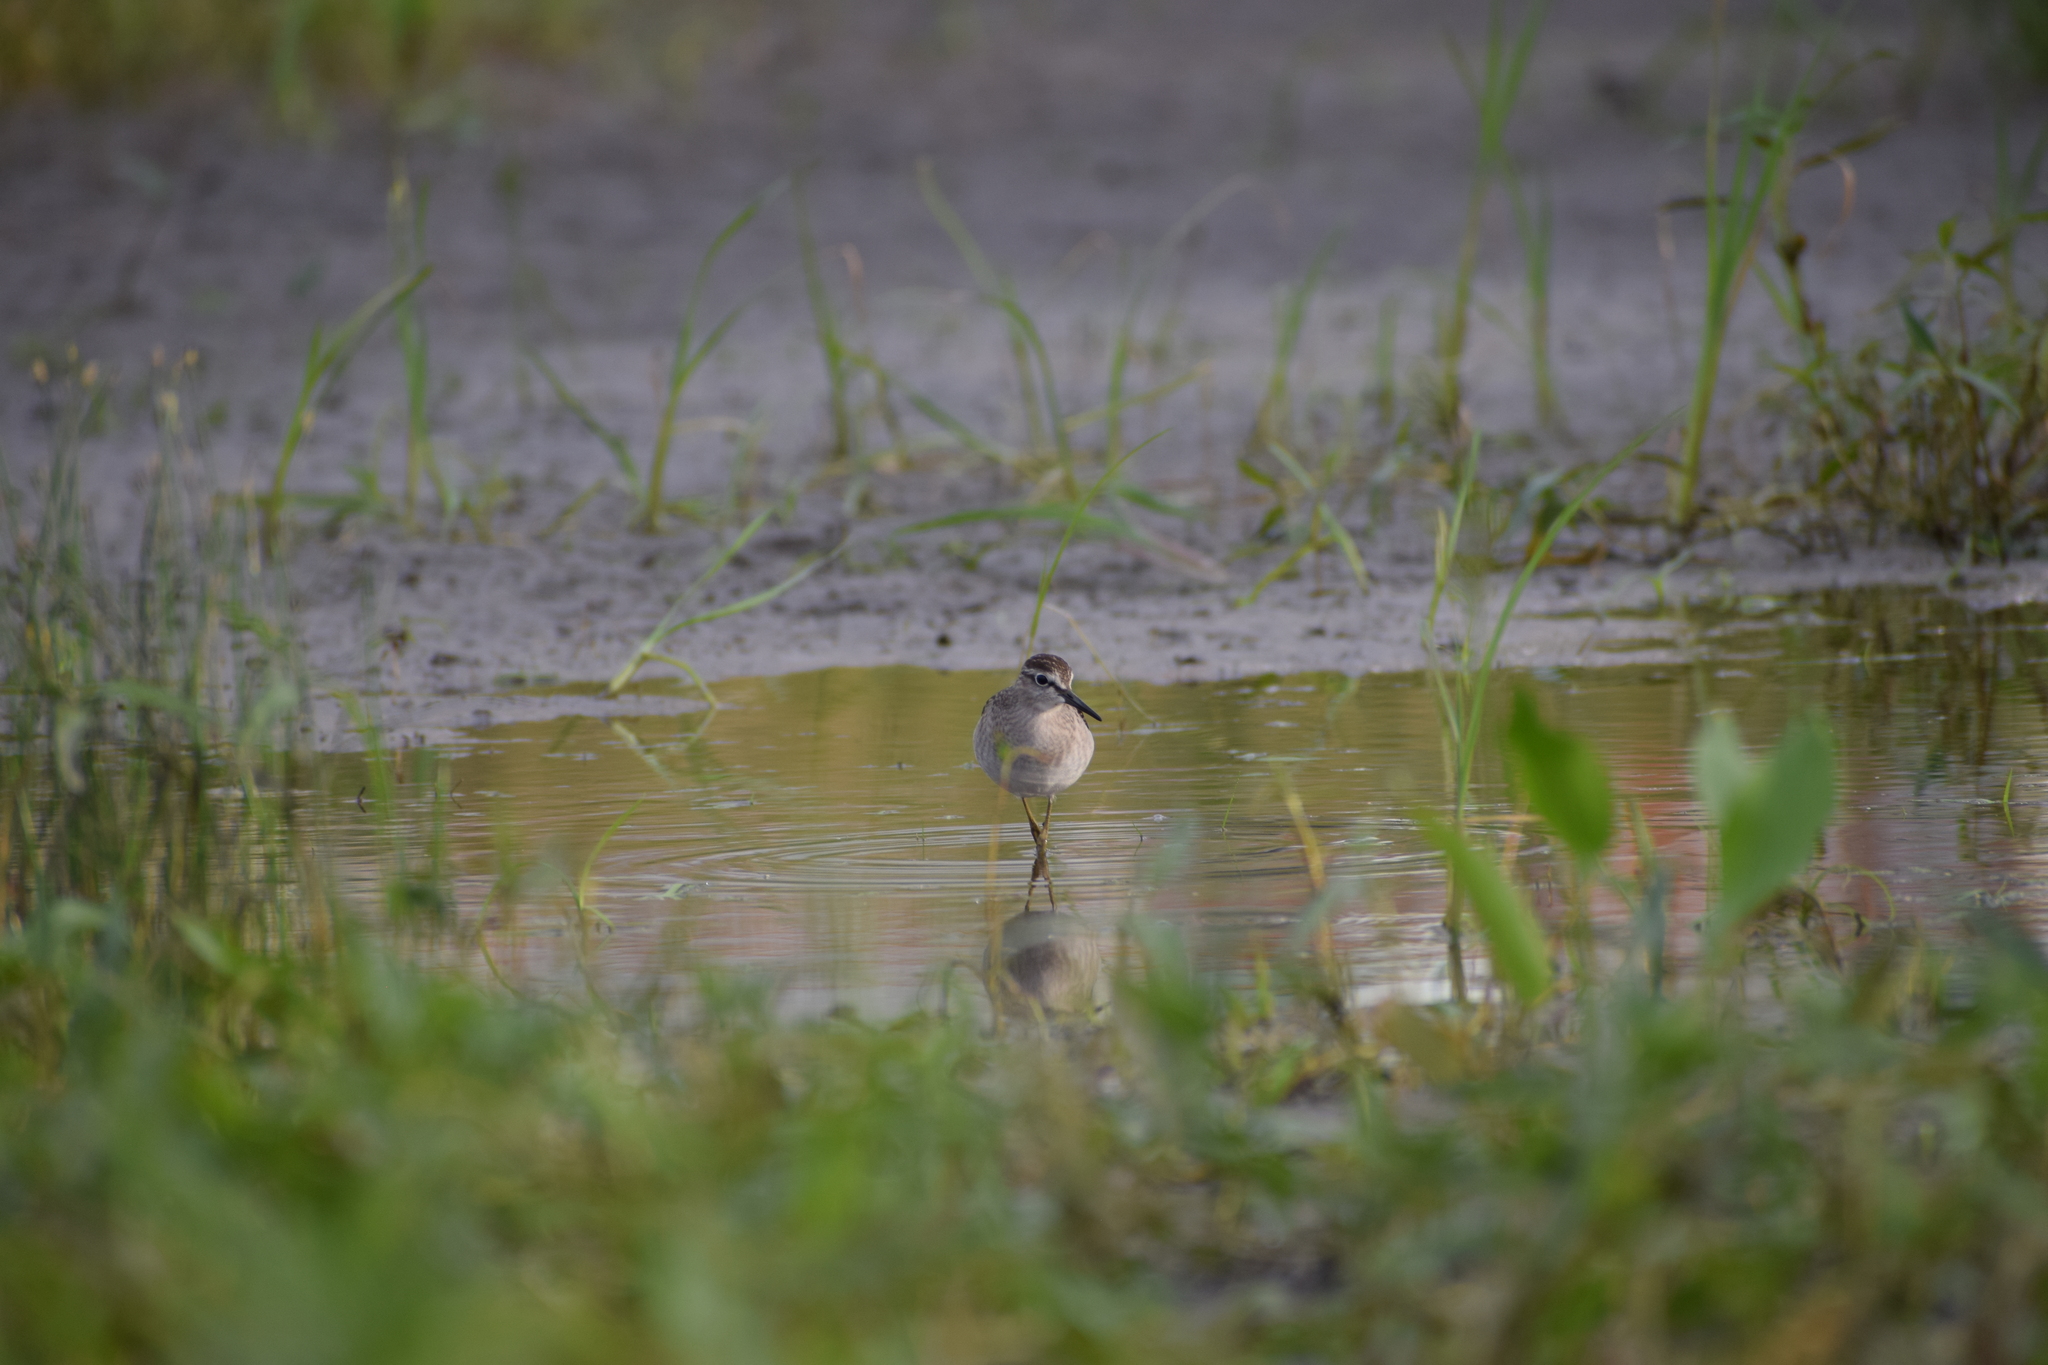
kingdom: Animalia
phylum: Chordata
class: Aves
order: Charadriiformes
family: Scolopacidae
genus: Tringa
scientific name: Tringa glareola
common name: Wood sandpiper
